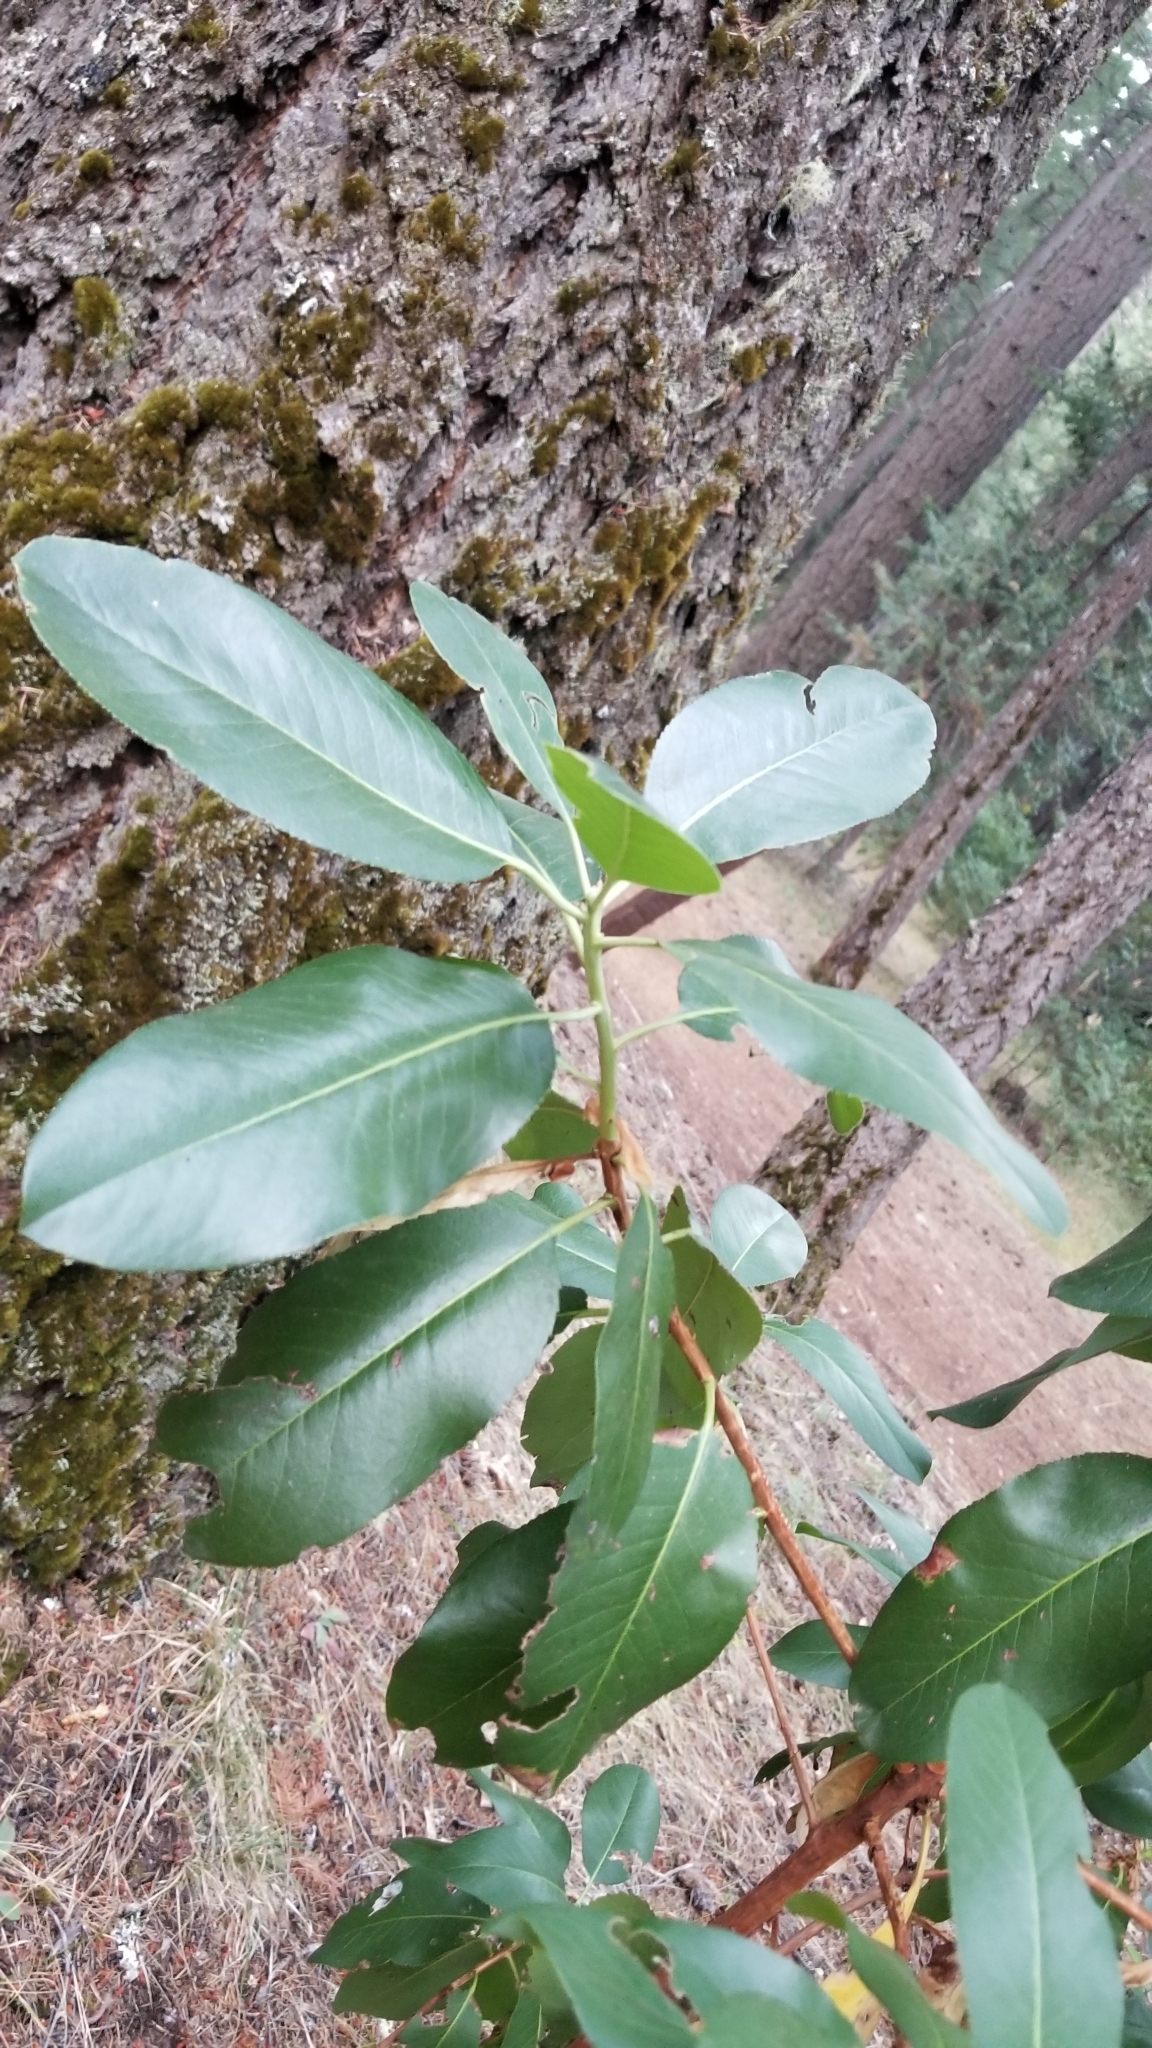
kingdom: Plantae
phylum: Tracheophyta
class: Magnoliopsida
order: Ericales
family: Ericaceae
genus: Arbutus
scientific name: Arbutus menziesii
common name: Pacific madrone
